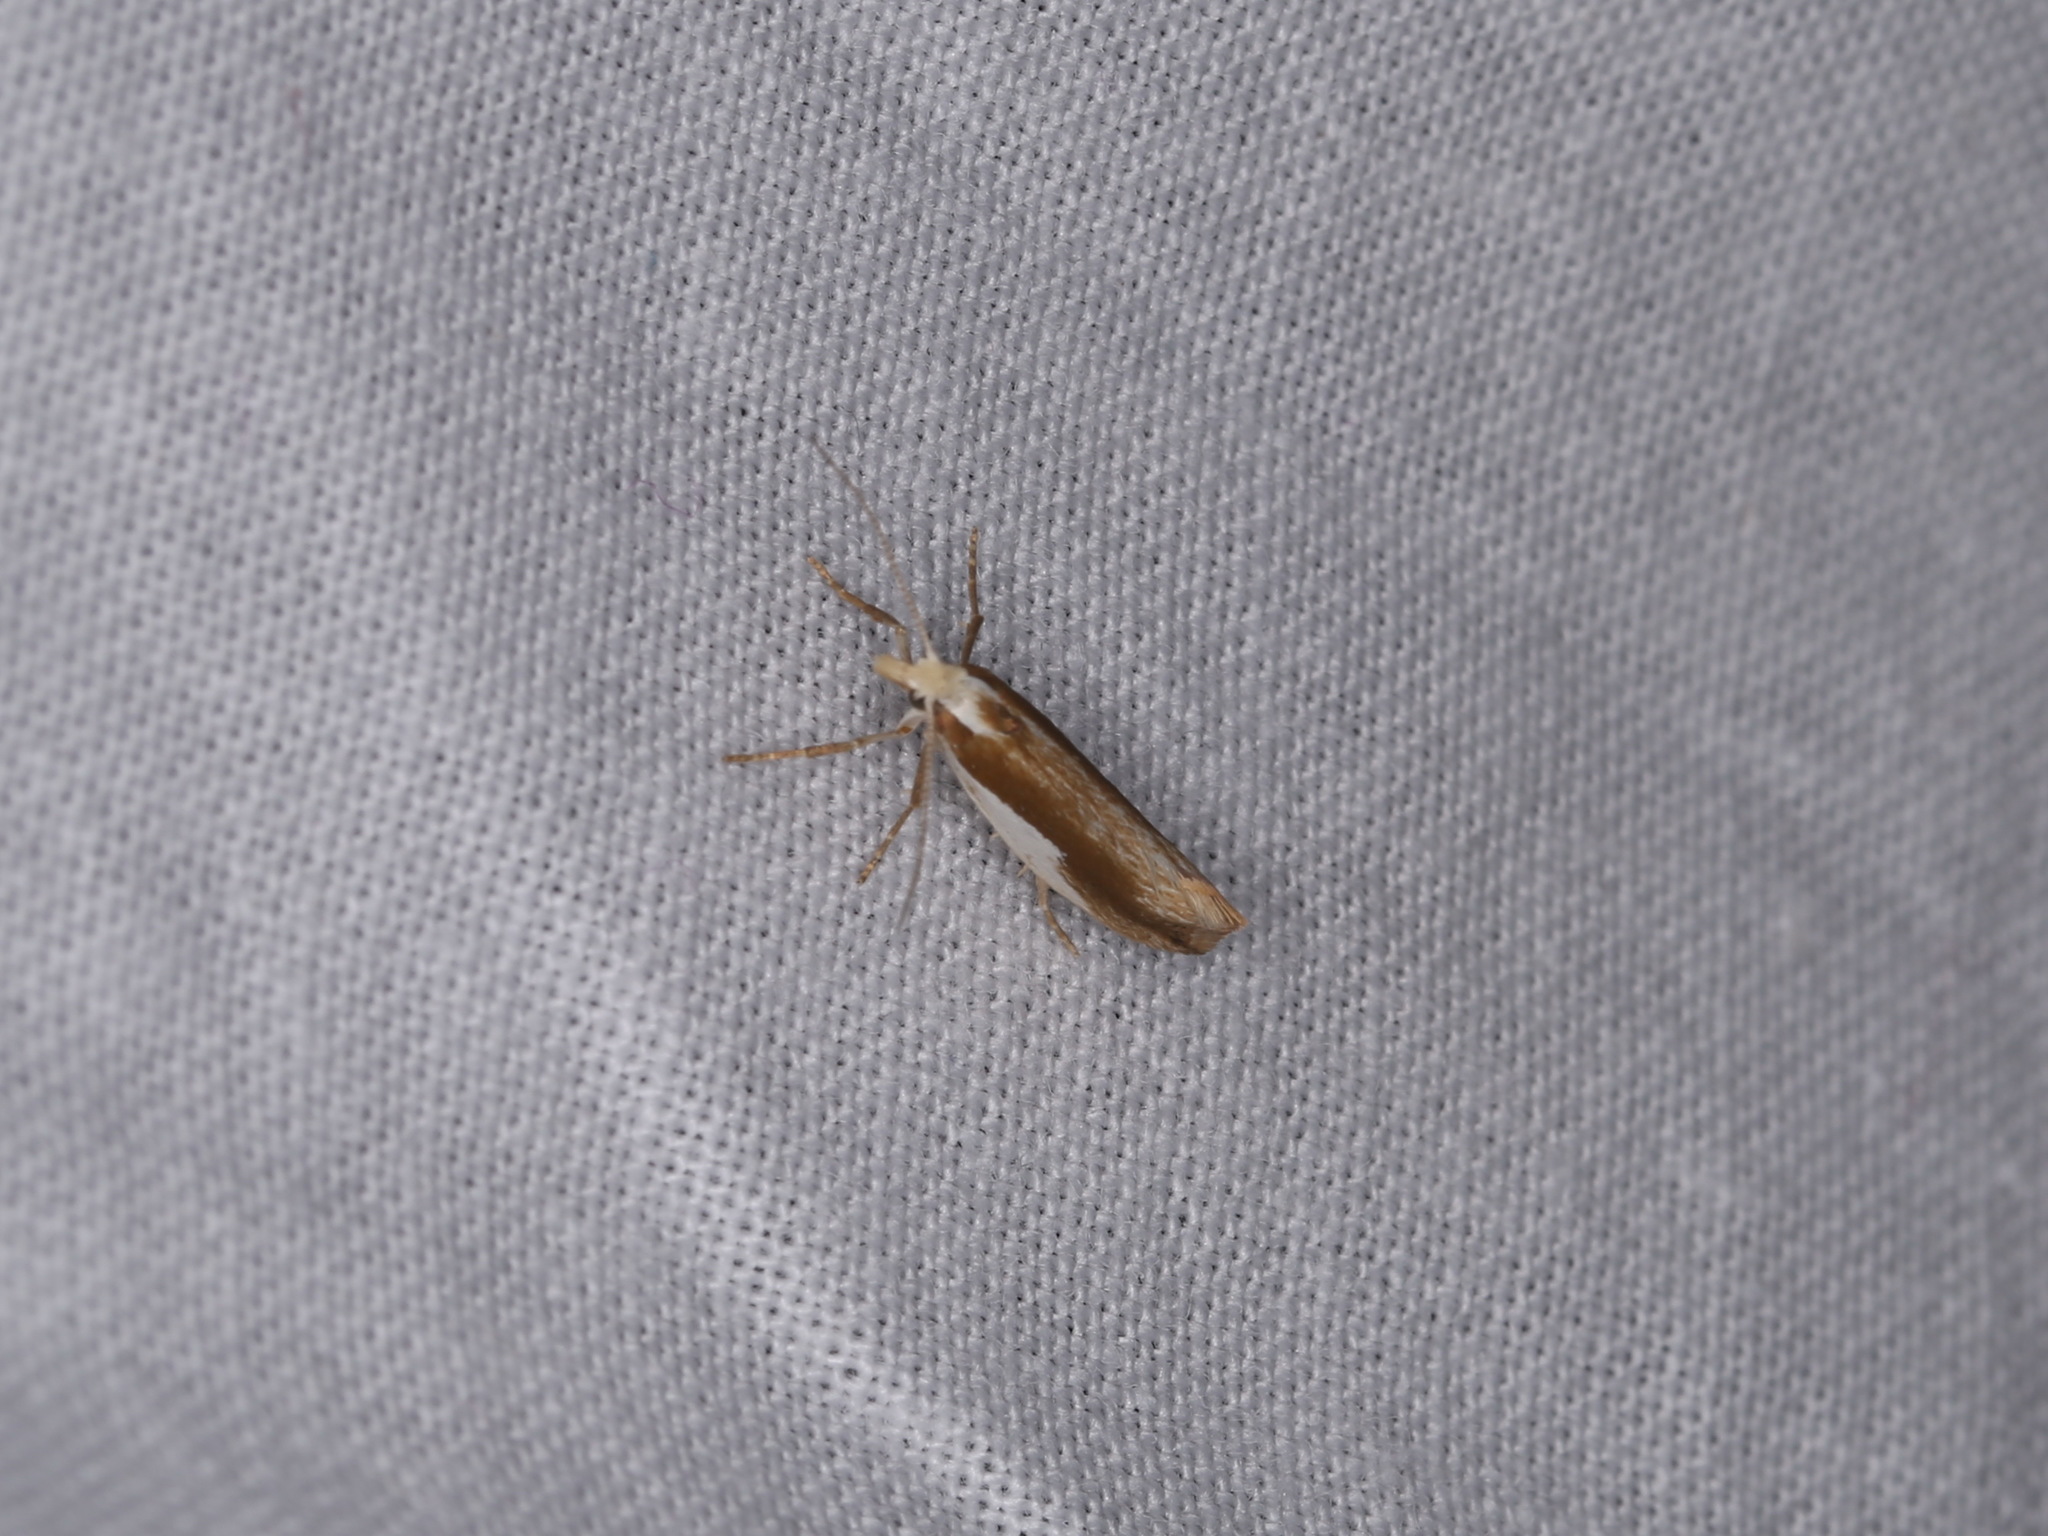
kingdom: Animalia
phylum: Arthropoda
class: Insecta
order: Lepidoptera
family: Ypsolophidae
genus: Ypsolopha
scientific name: Ypsolopha parenthesella
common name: White-shouldered smudge
